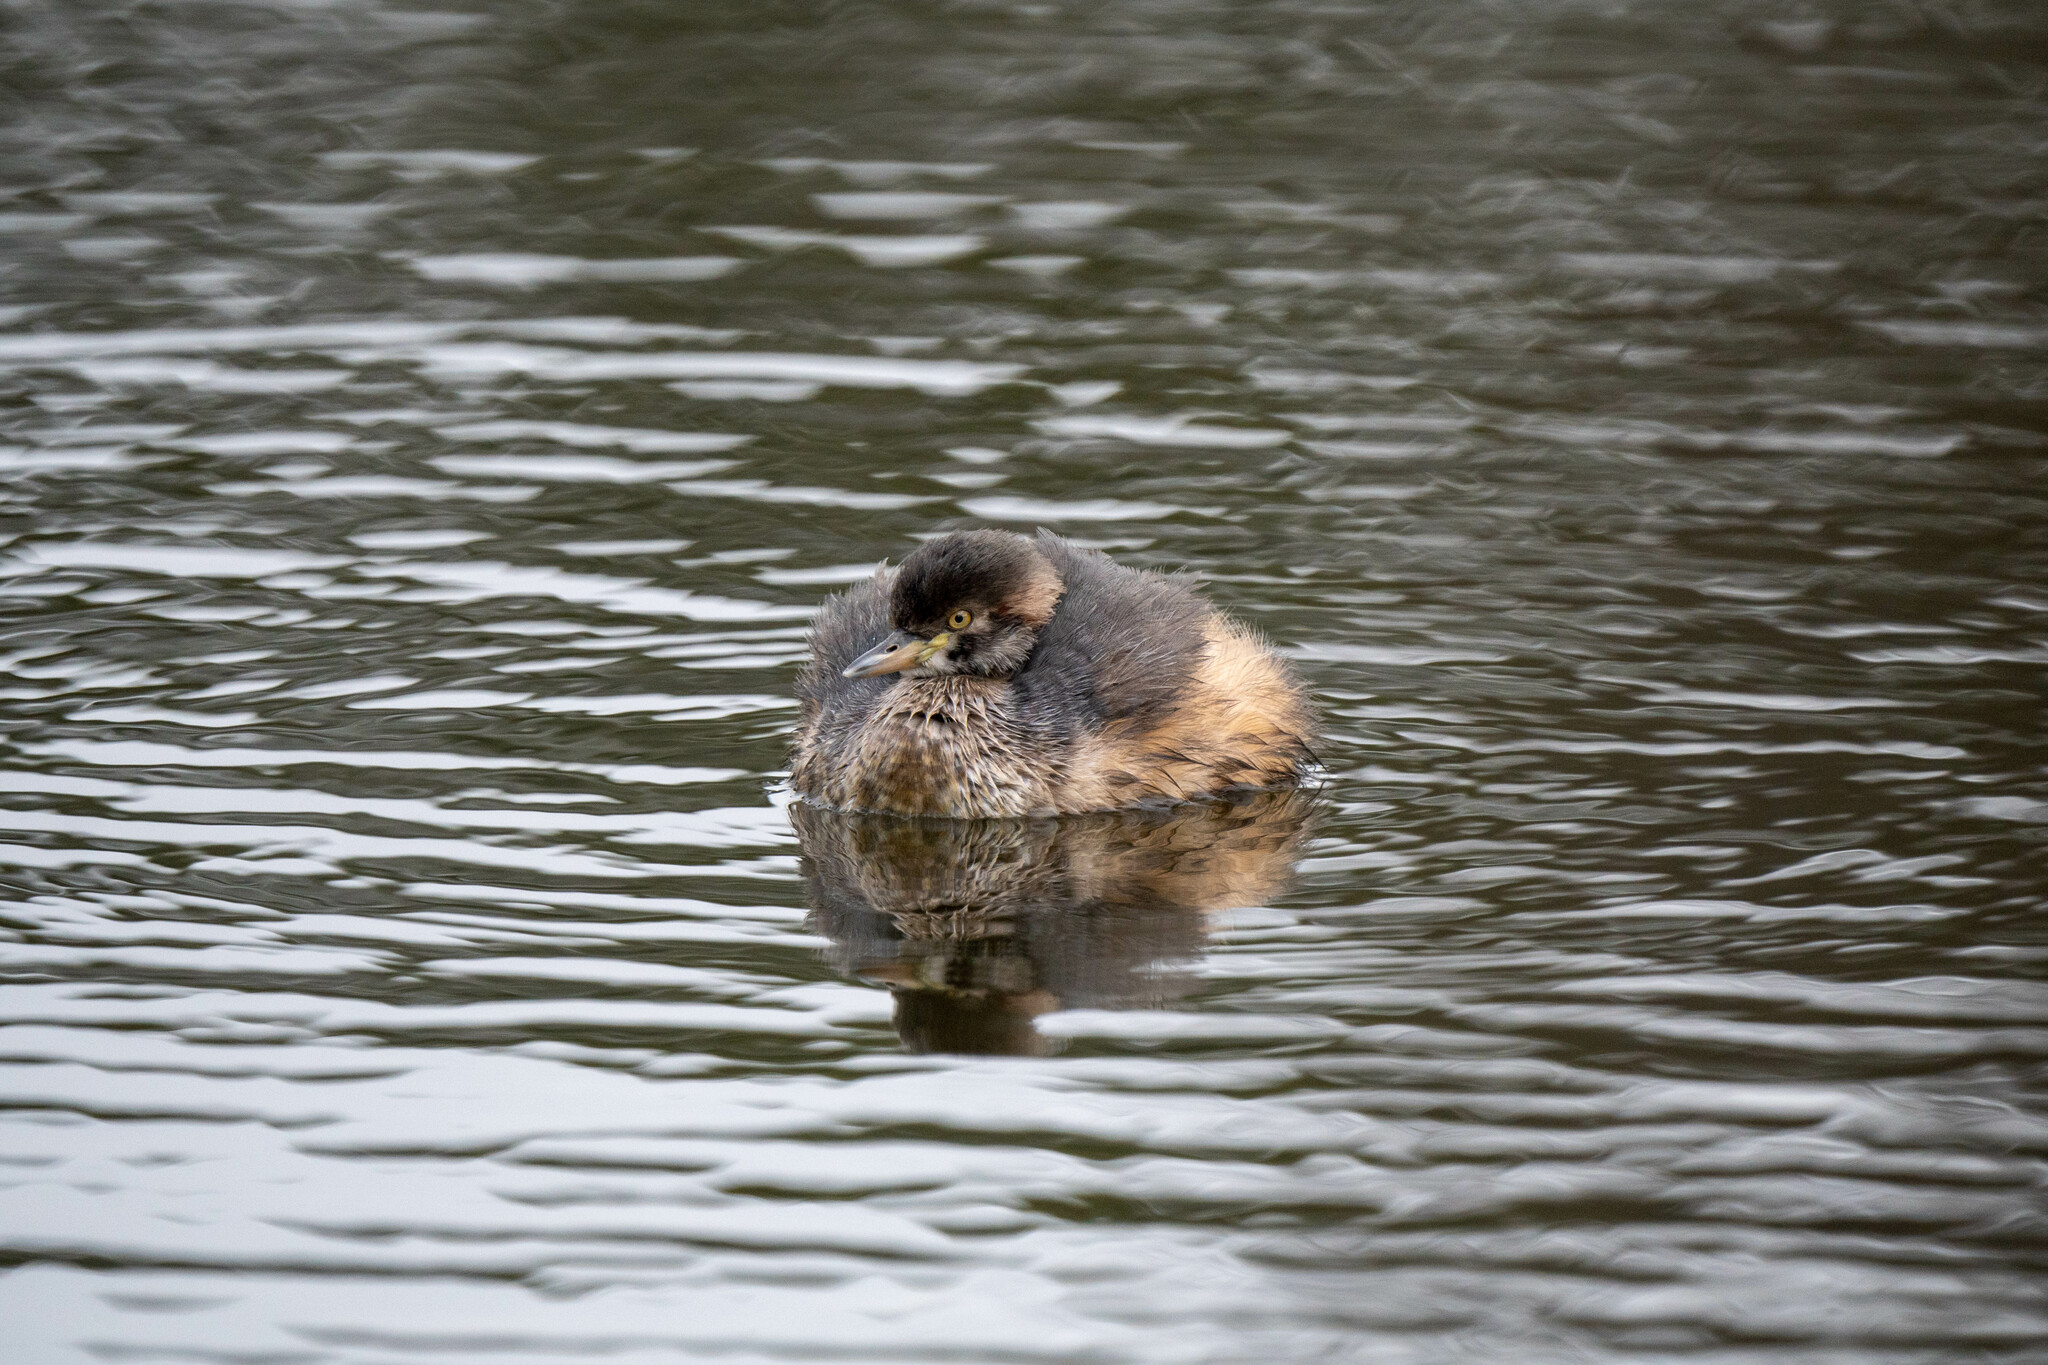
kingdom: Animalia
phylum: Chordata
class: Aves
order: Podicipediformes
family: Podicipedidae
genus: Tachybaptus
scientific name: Tachybaptus novaehollandiae
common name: Australasian grebe
